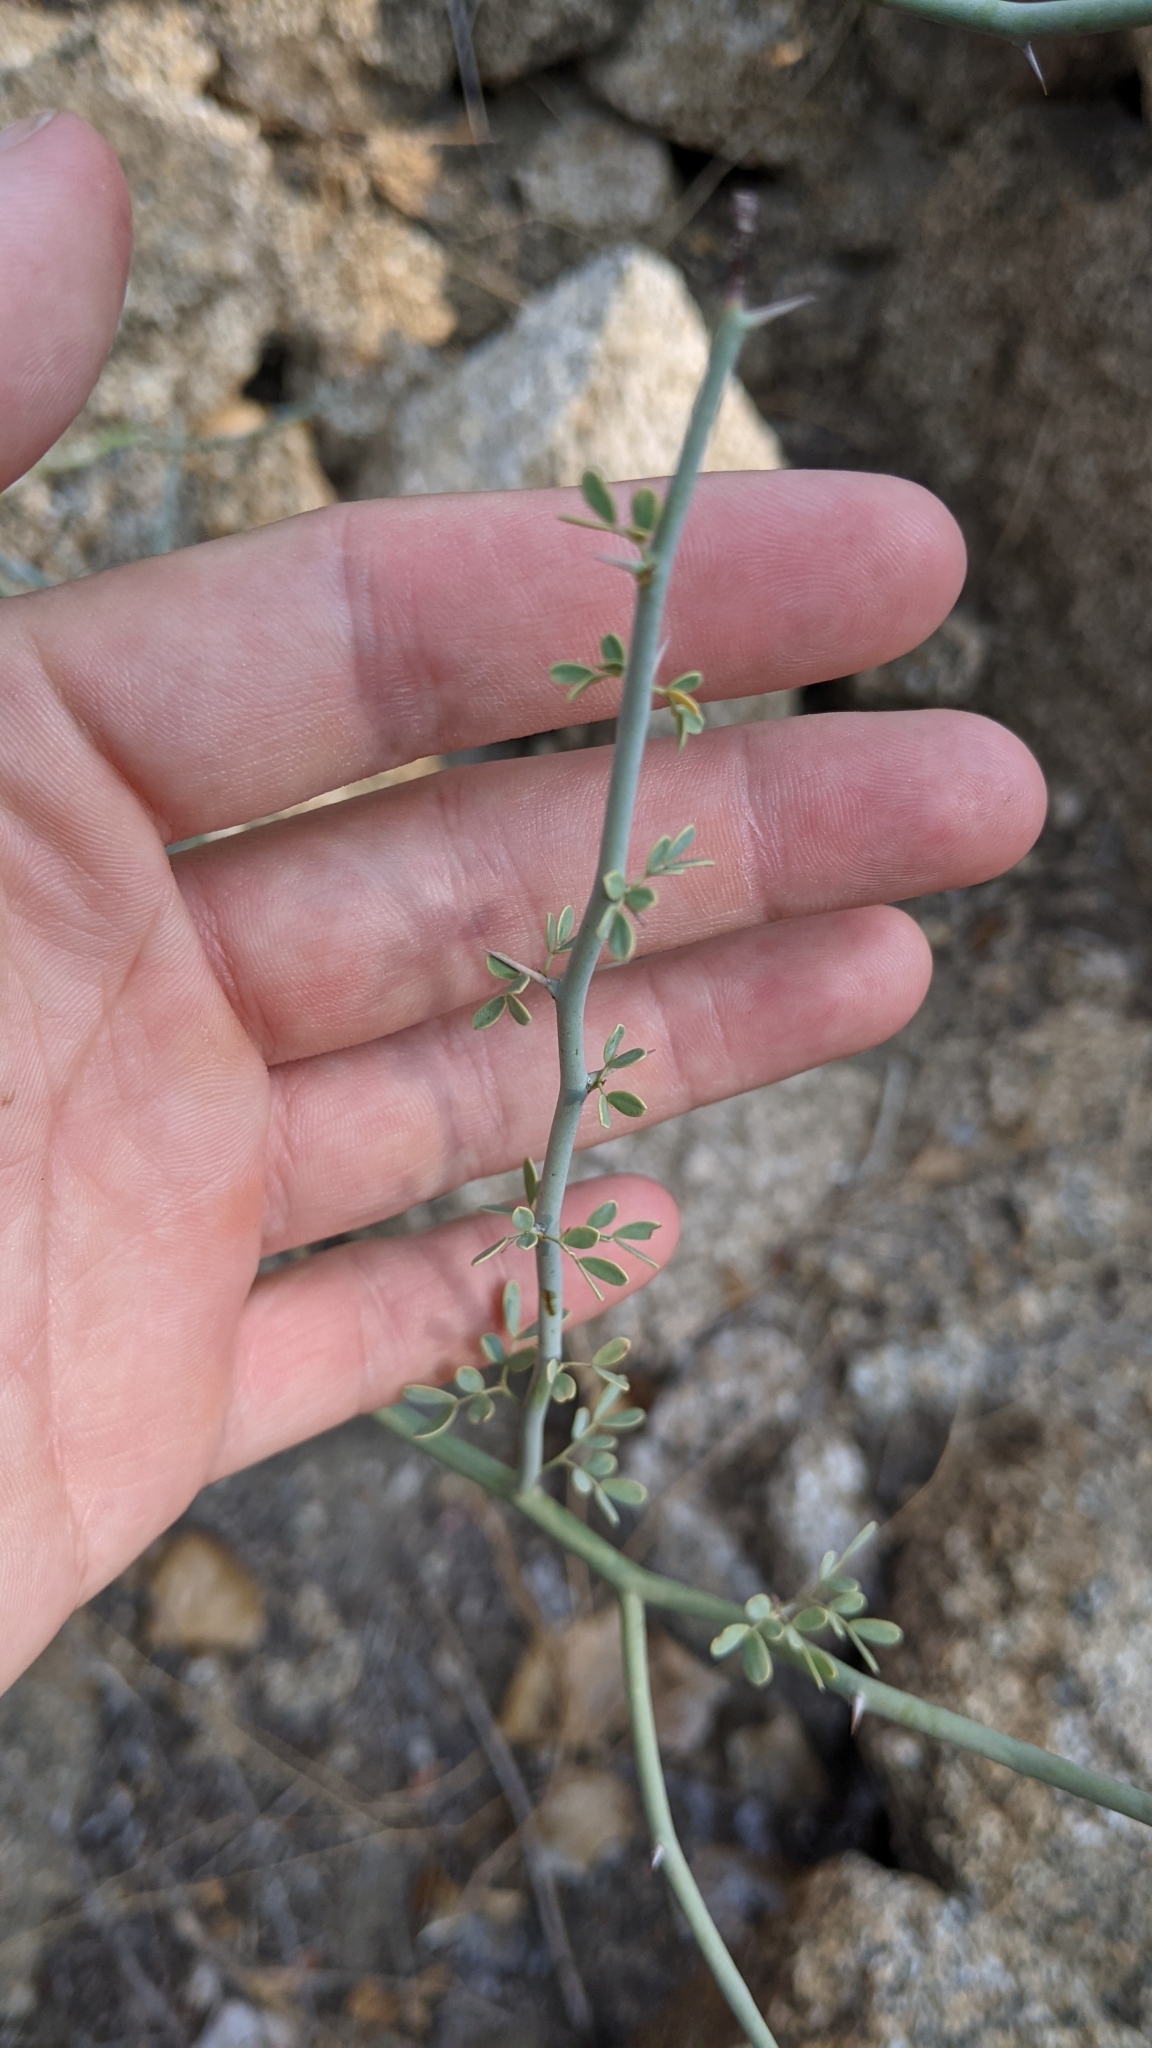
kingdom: Plantae
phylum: Tracheophyta
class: Magnoliopsida
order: Fabales
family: Fabaceae
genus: Parkinsonia
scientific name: Parkinsonia florida
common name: Blue paloverde
